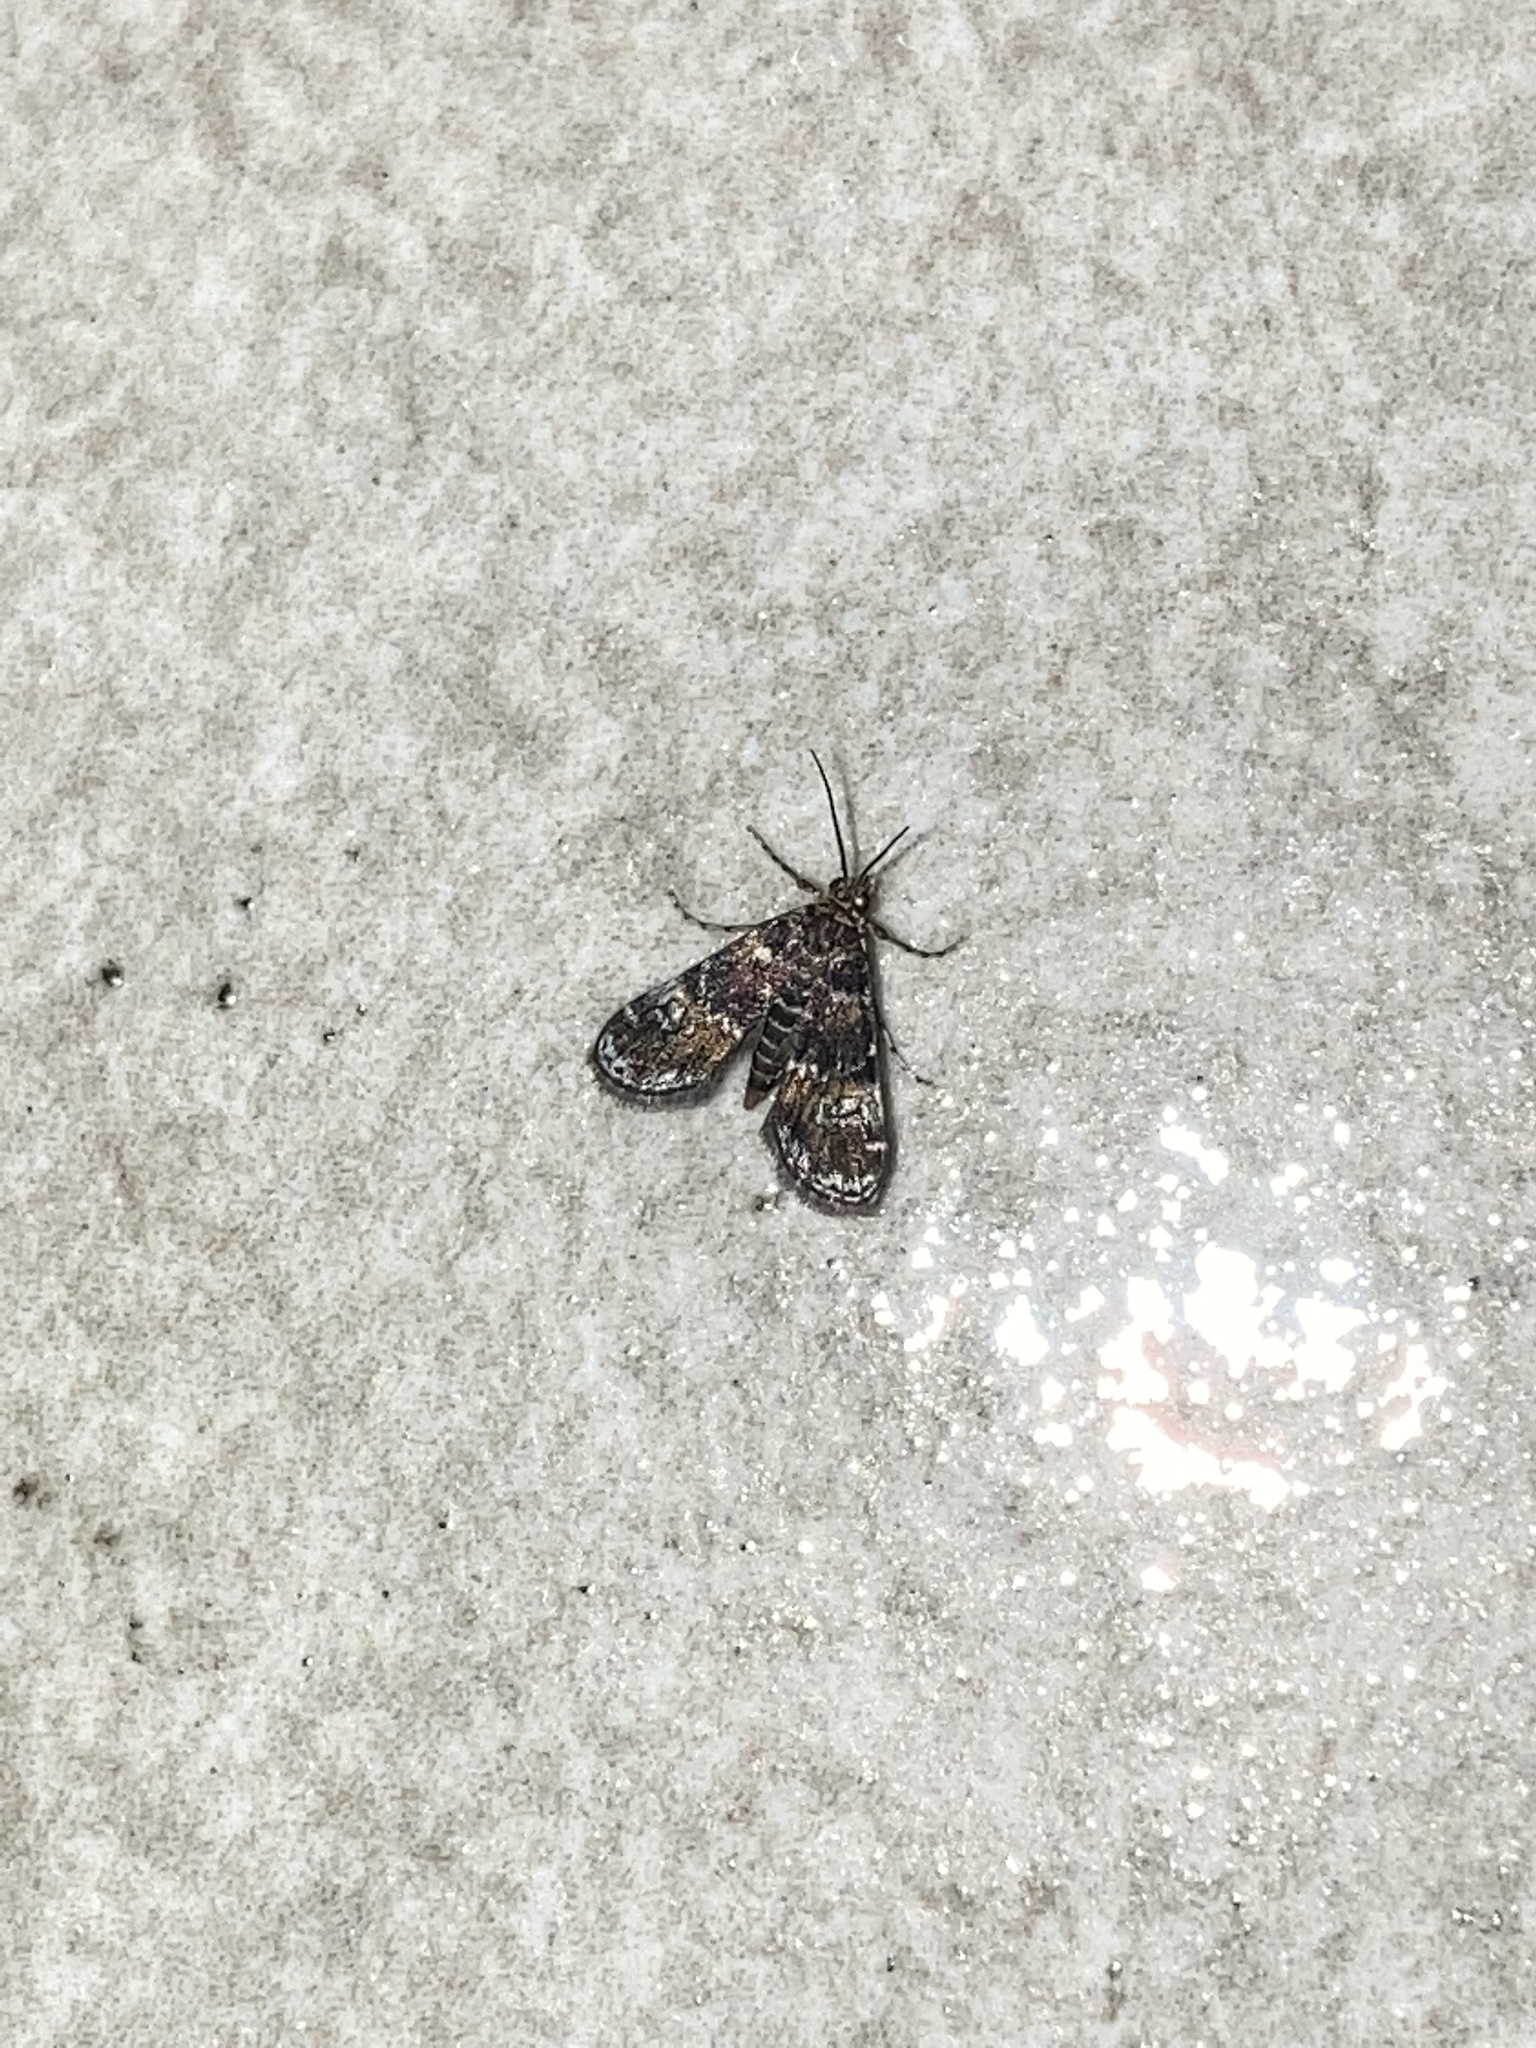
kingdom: Animalia
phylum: Arthropoda
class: Insecta
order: Lepidoptera
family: Crambidae
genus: Elophila
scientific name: Elophila obliteralis
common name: Waterlily leafcutter moth
